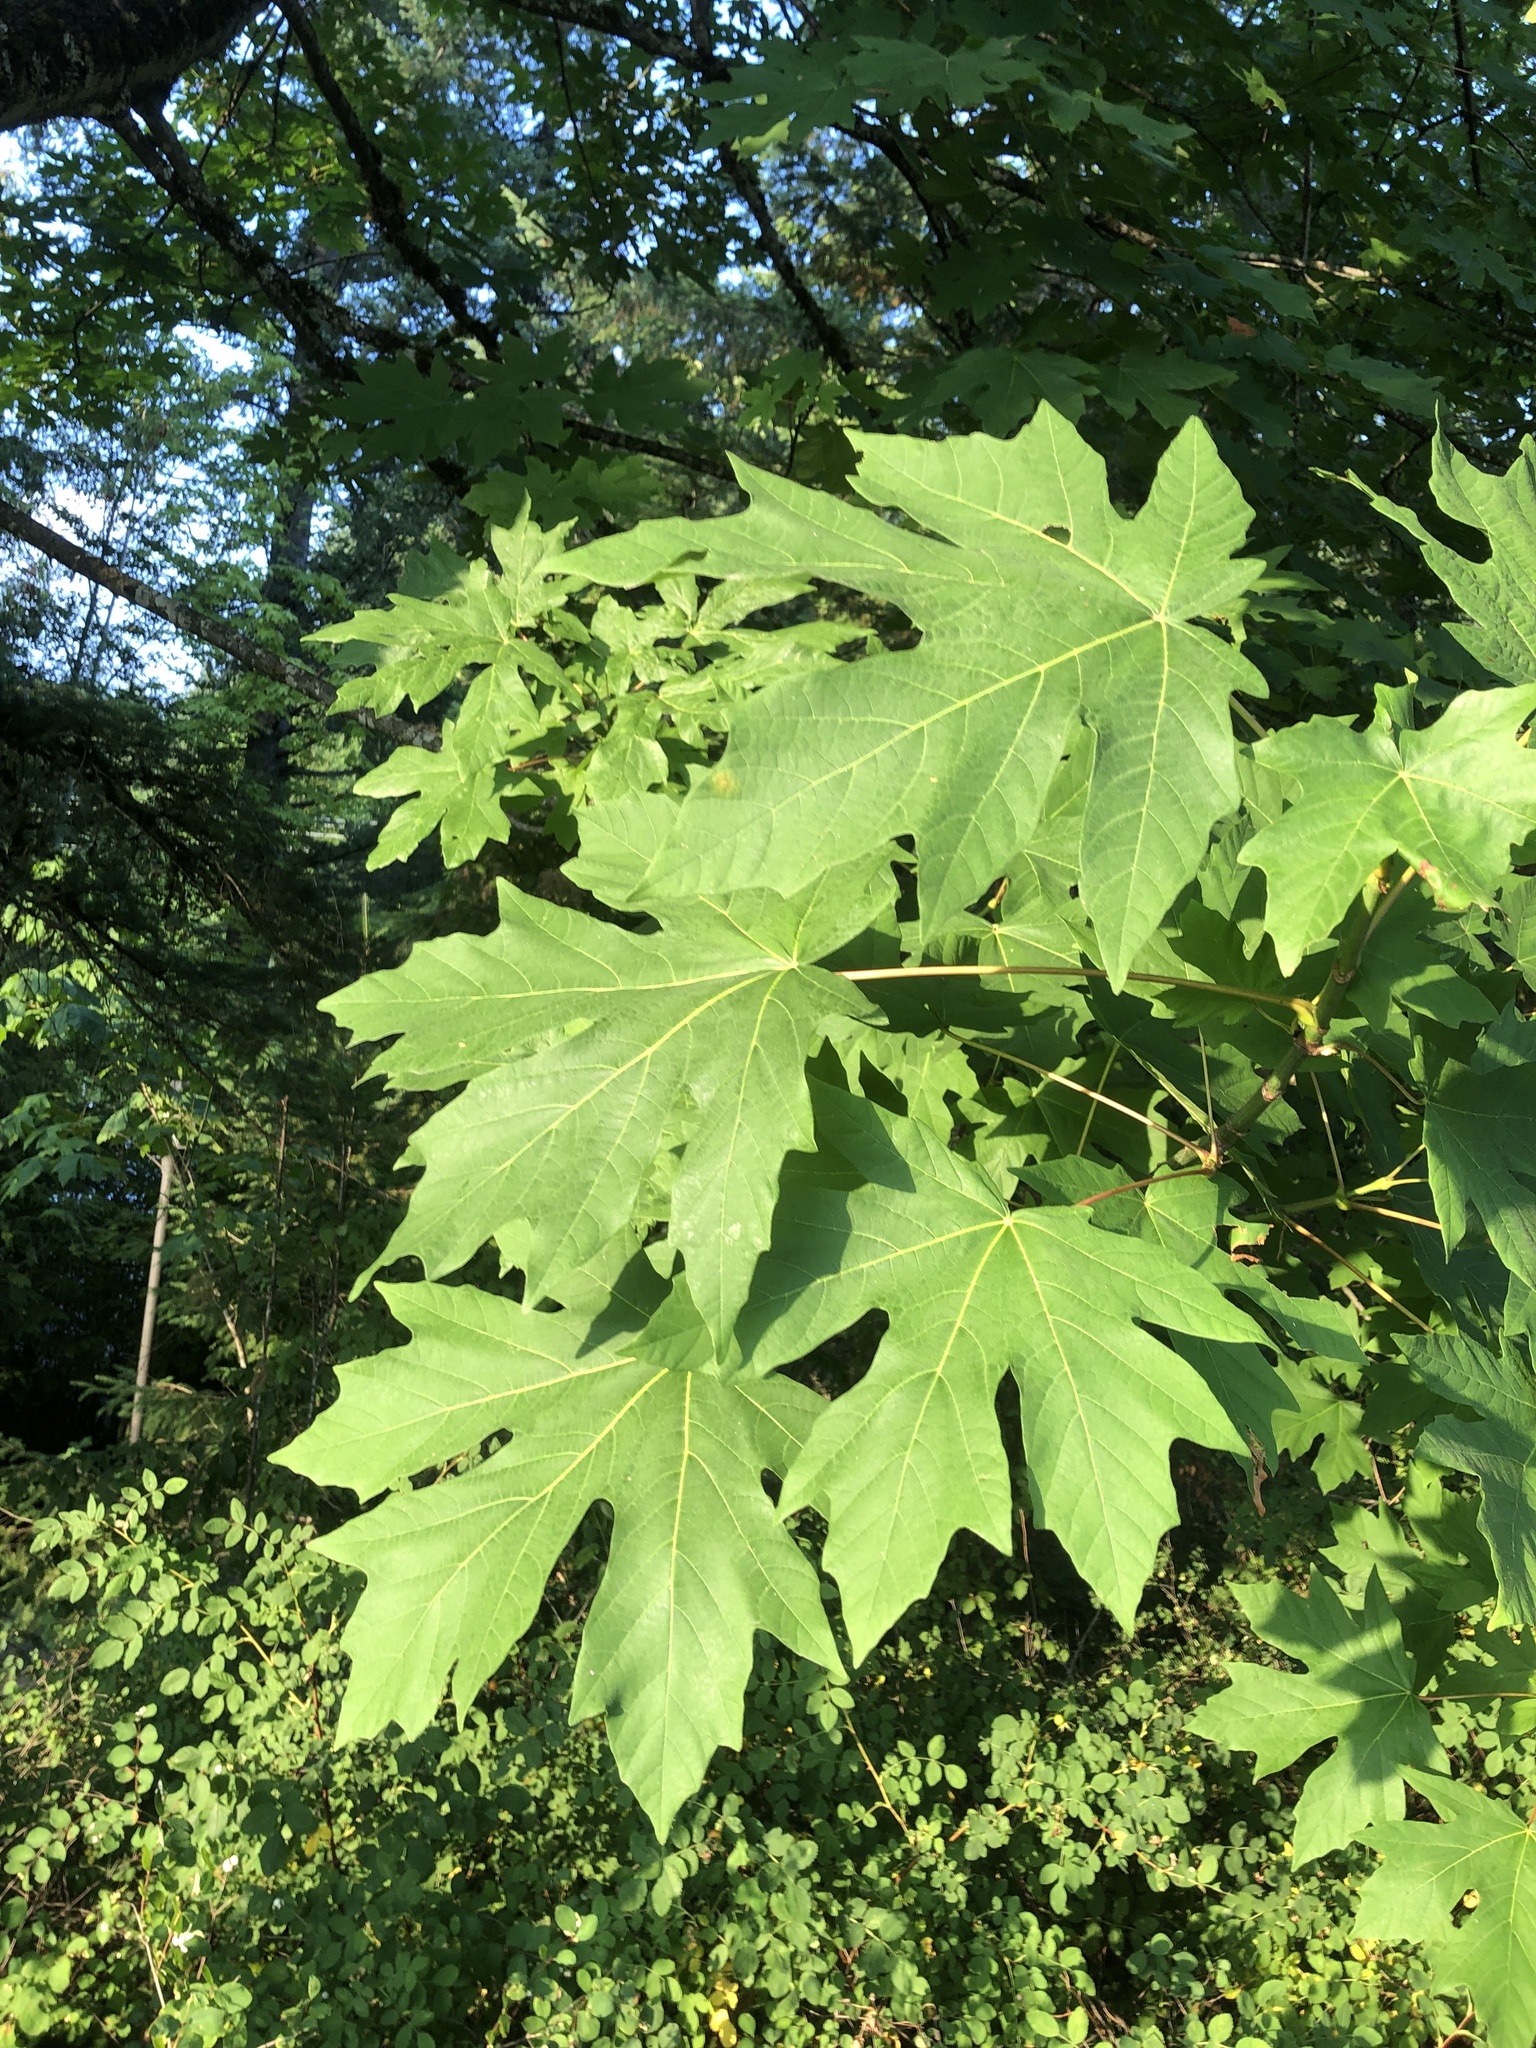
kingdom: Plantae
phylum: Tracheophyta
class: Magnoliopsida
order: Sapindales
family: Sapindaceae
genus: Acer
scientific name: Acer macrophyllum
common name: Oregon maple
